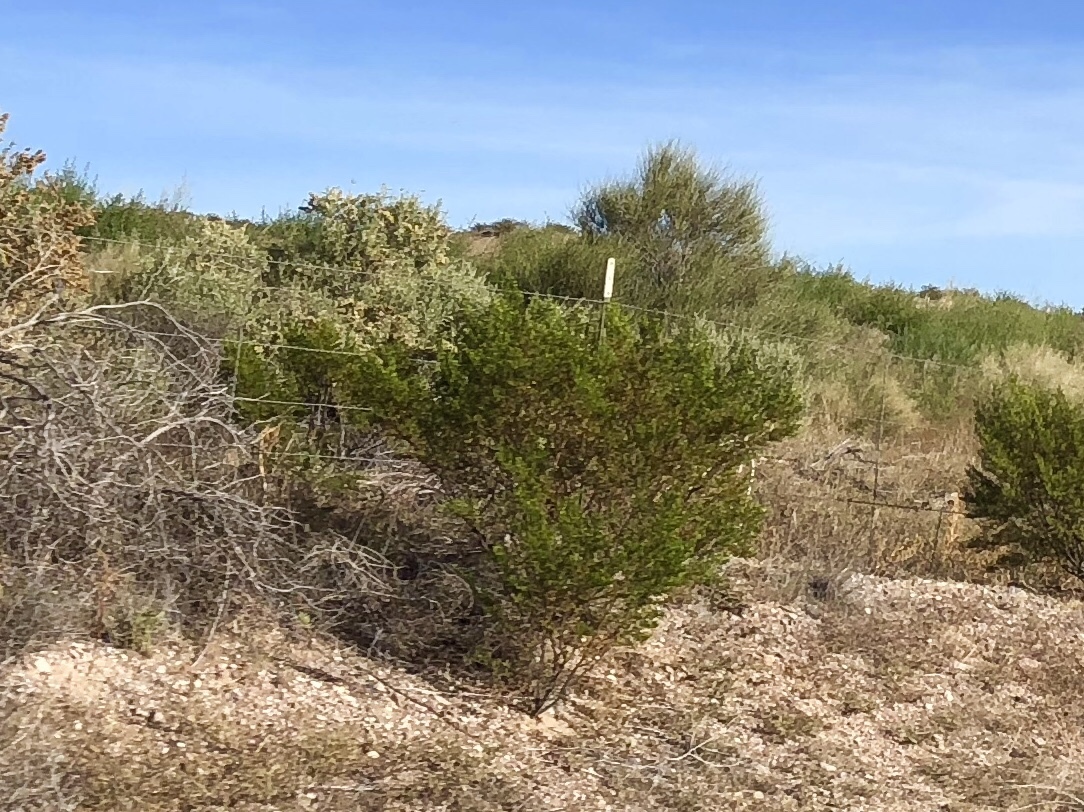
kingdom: Plantae
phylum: Tracheophyta
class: Magnoliopsida
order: Zygophyllales
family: Zygophyllaceae
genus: Larrea
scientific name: Larrea tridentata
